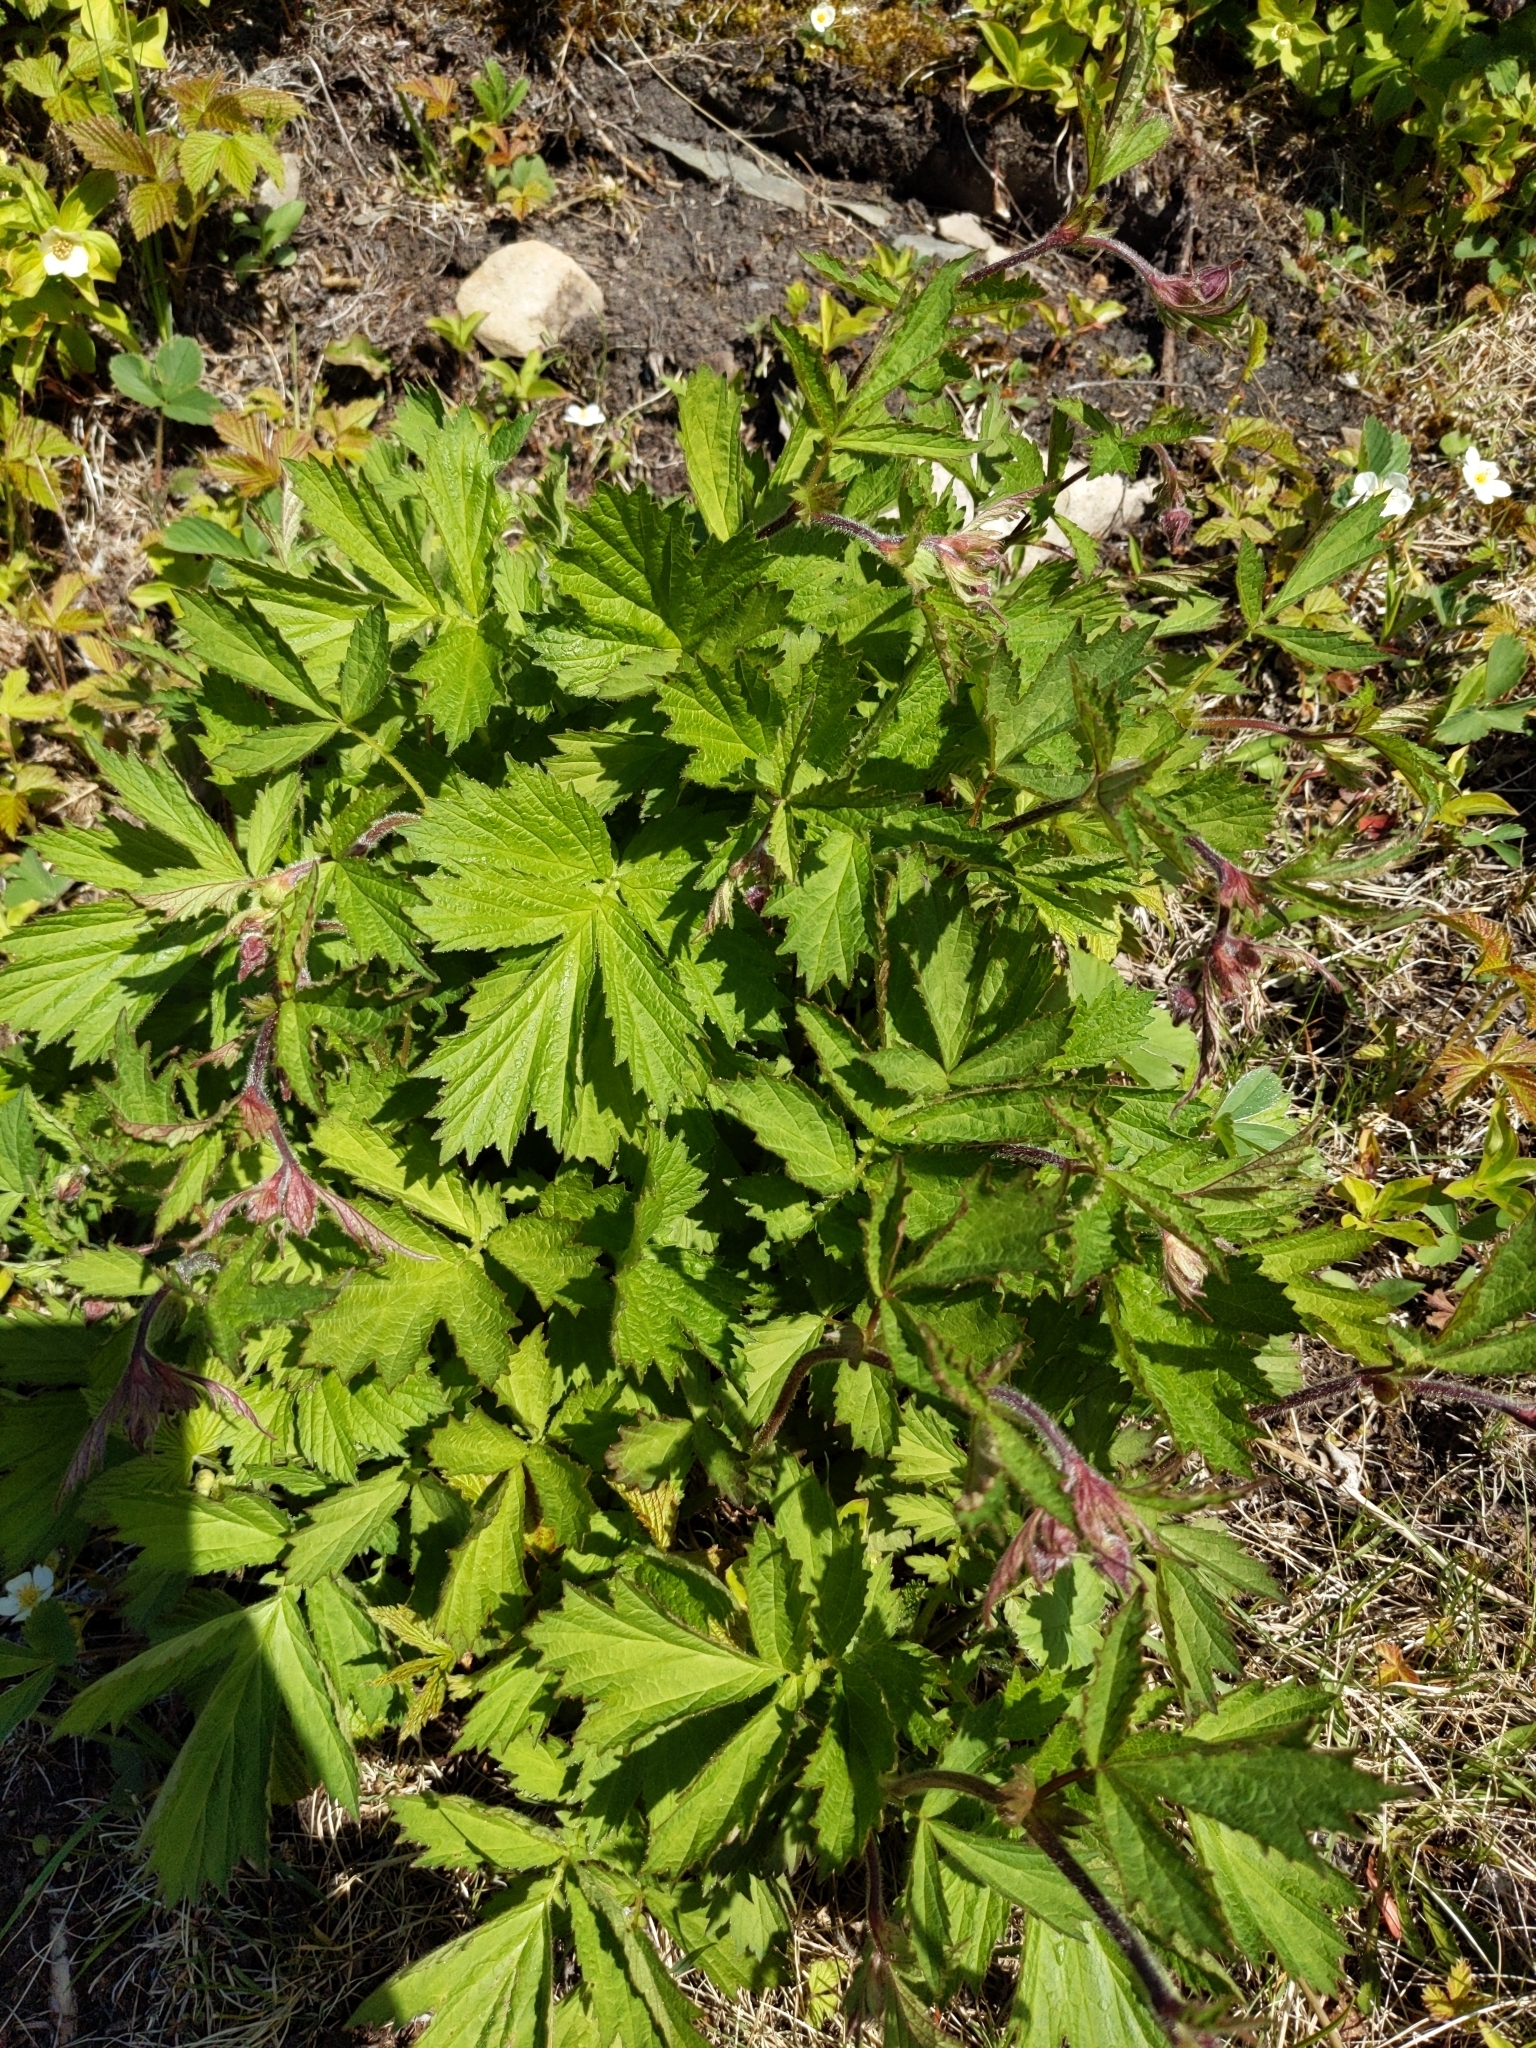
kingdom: Plantae
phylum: Tracheophyta
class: Magnoliopsida
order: Rosales
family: Rosaceae
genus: Geum
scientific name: Geum rivale
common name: Water avens
